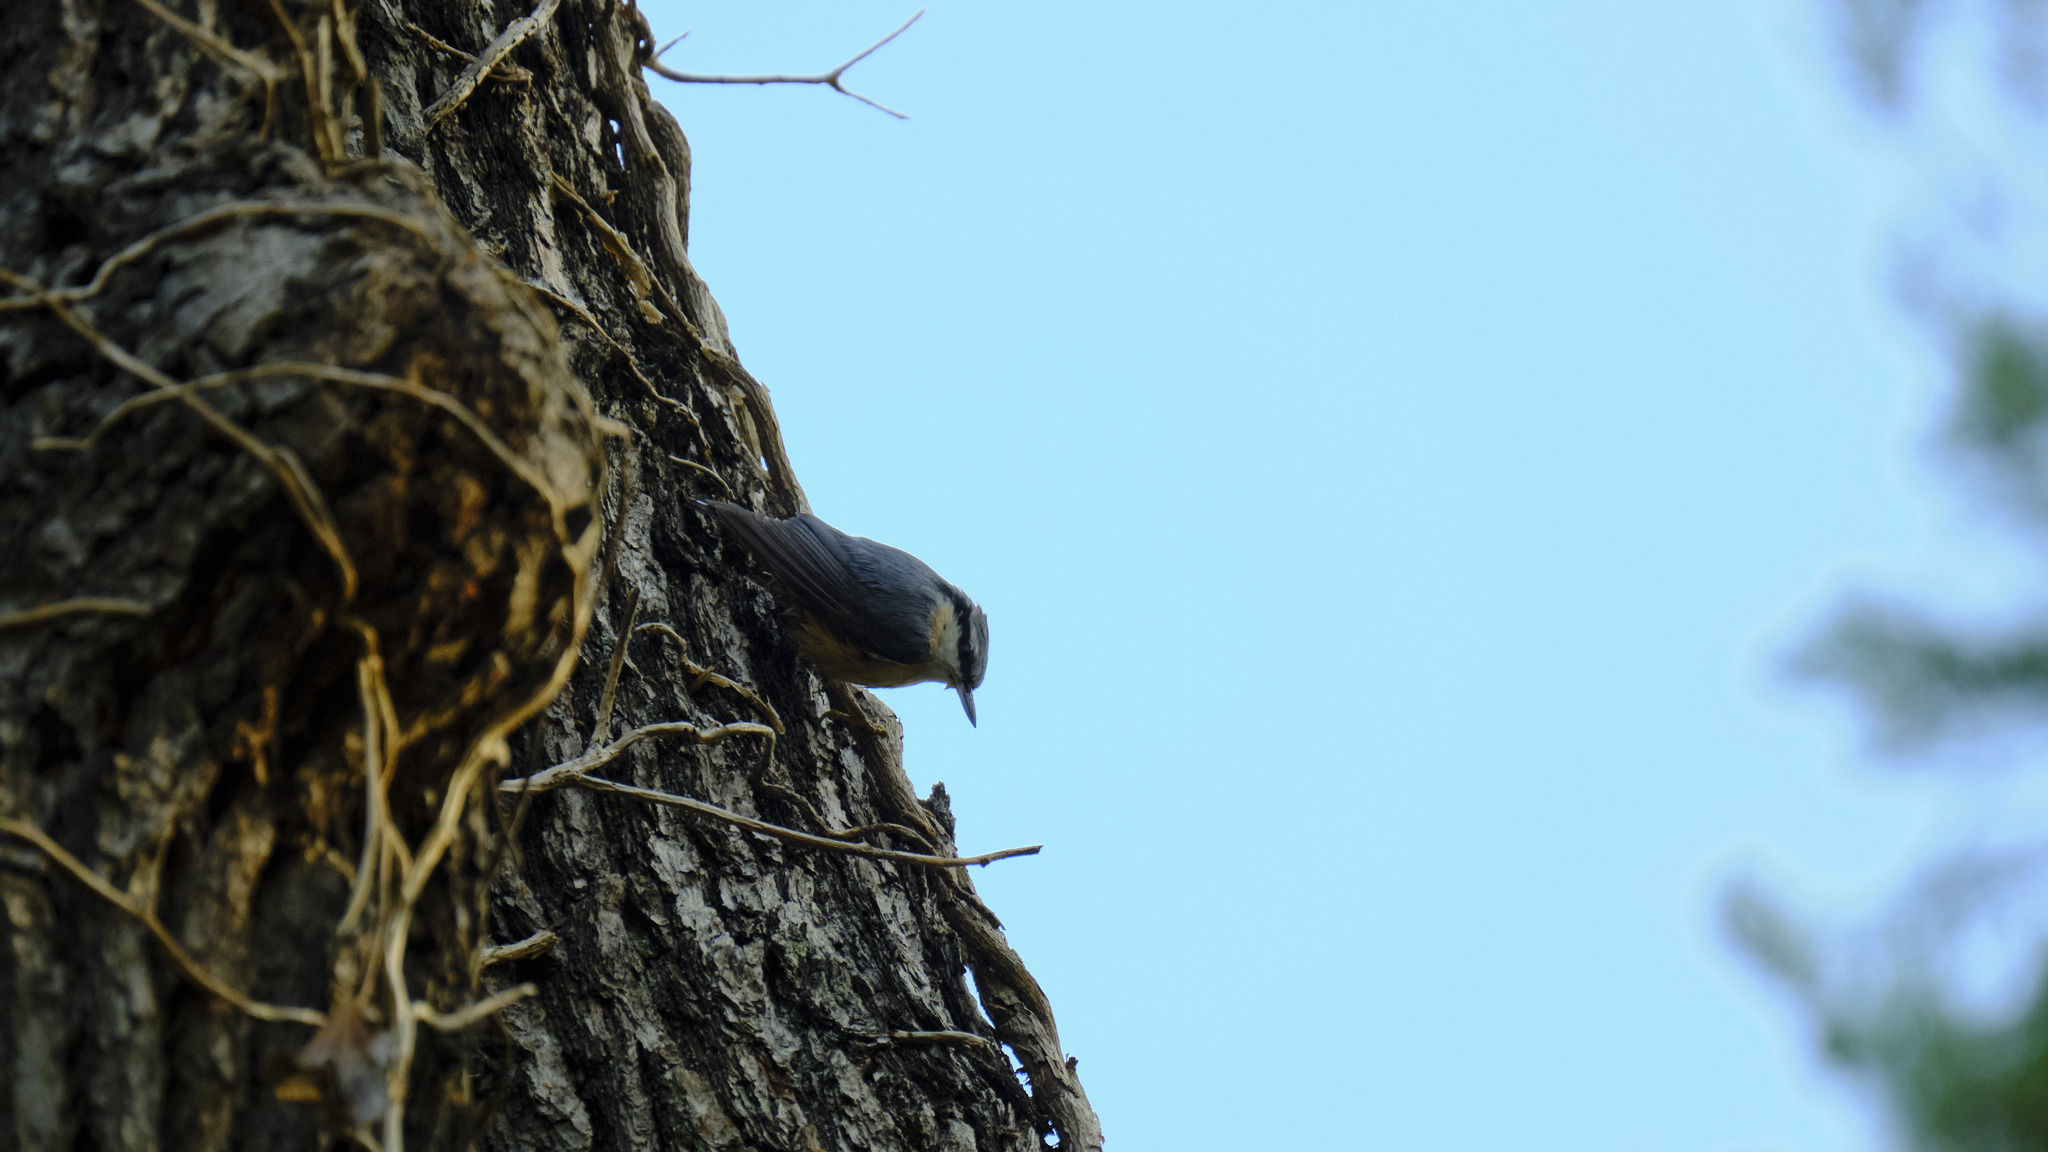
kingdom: Animalia
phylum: Chordata
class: Aves
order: Passeriformes
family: Sittidae
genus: Sitta
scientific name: Sitta europaea
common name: Eurasian nuthatch
